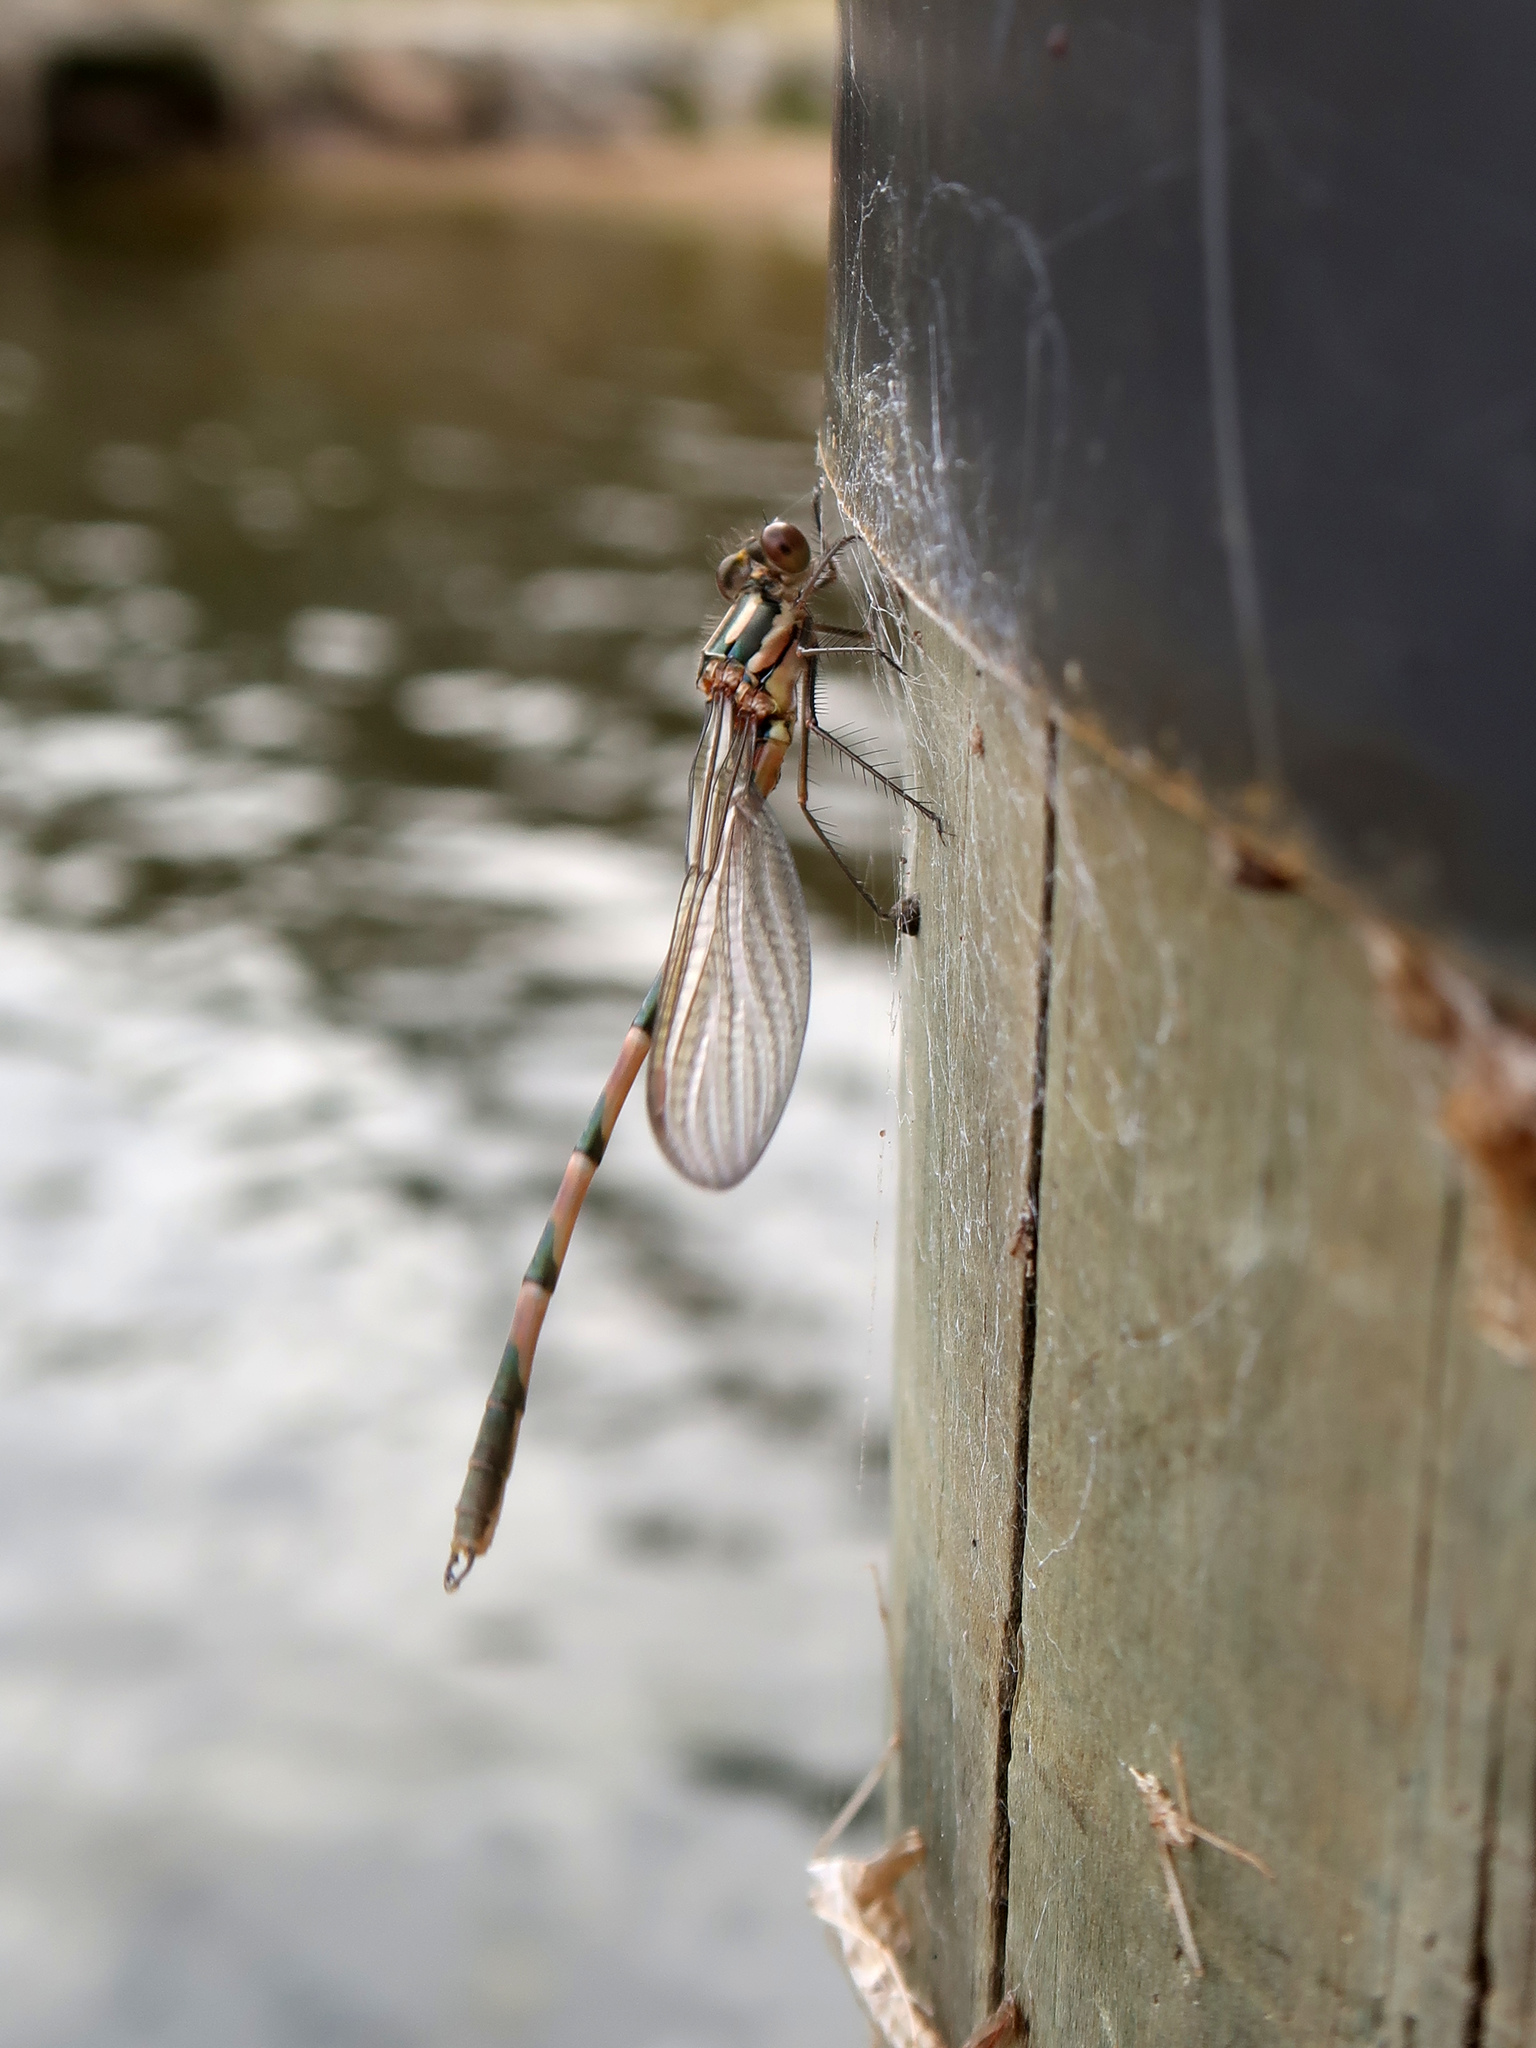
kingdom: Animalia
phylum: Arthropoda
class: Insecta
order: Odonata
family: Lestidae
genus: Austrolestes
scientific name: Austrolestes annulosus
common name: Blue ringtail
